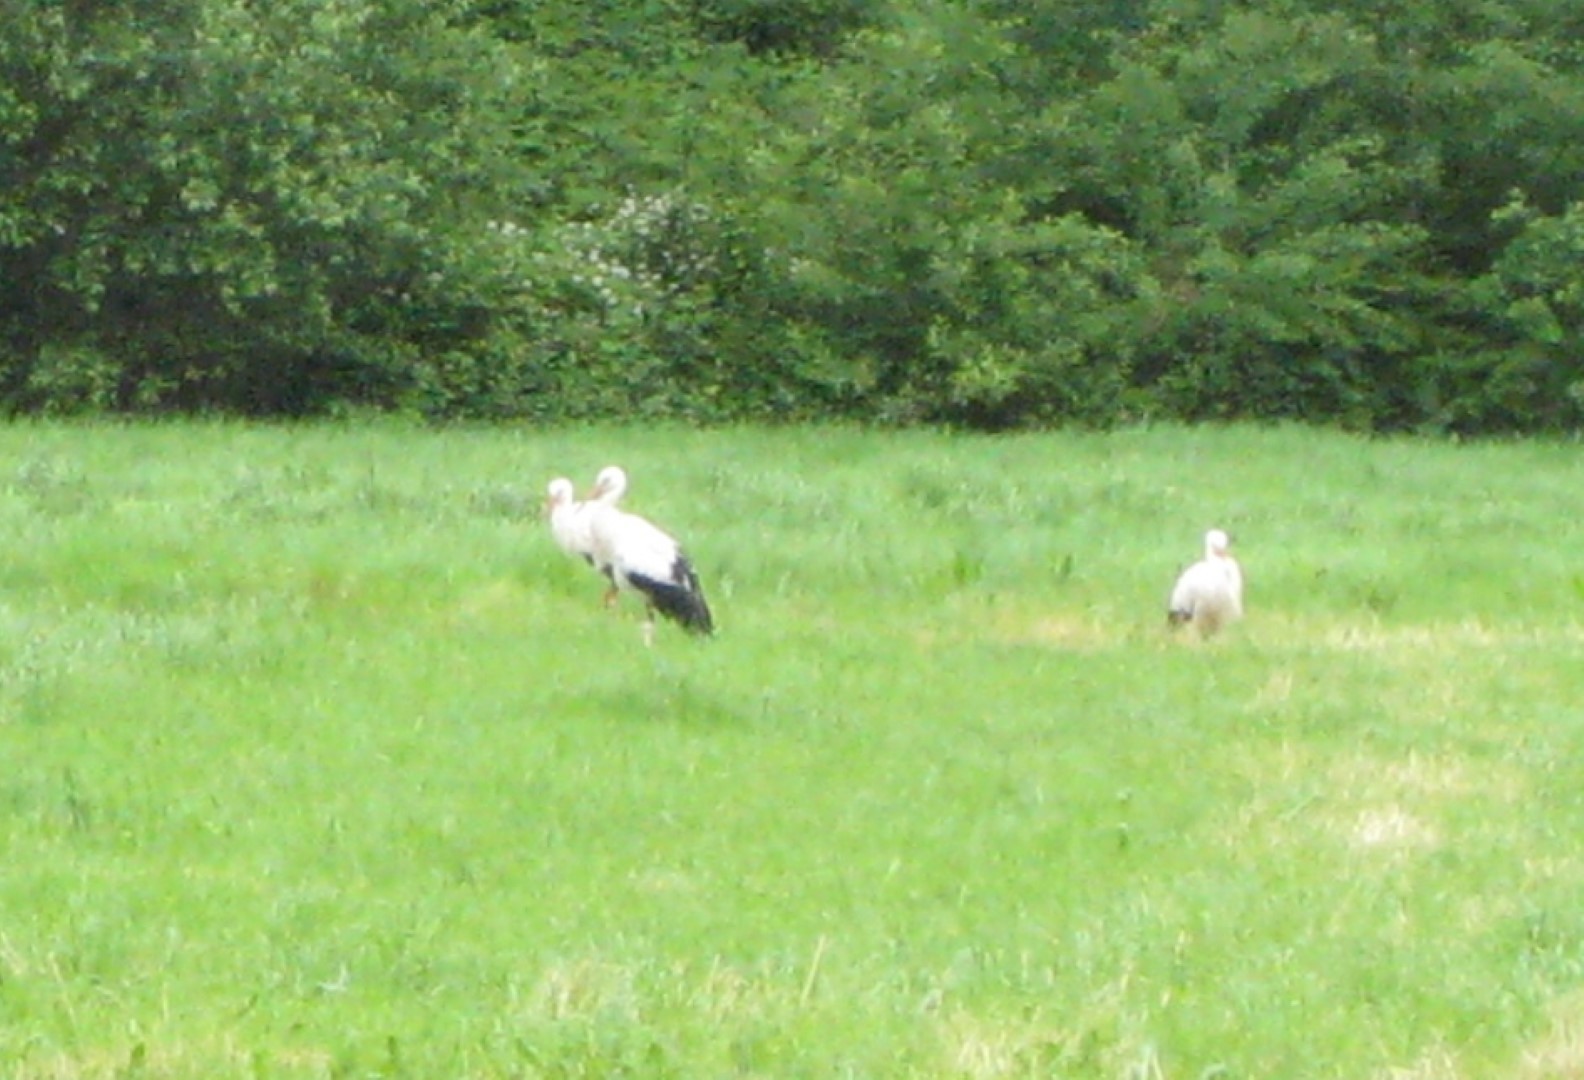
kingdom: Animalia
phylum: Chordata
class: Aves
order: Ciconiiformes
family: Ciconiidae
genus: Ciconia
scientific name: Ciconia ciconia
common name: White stork
